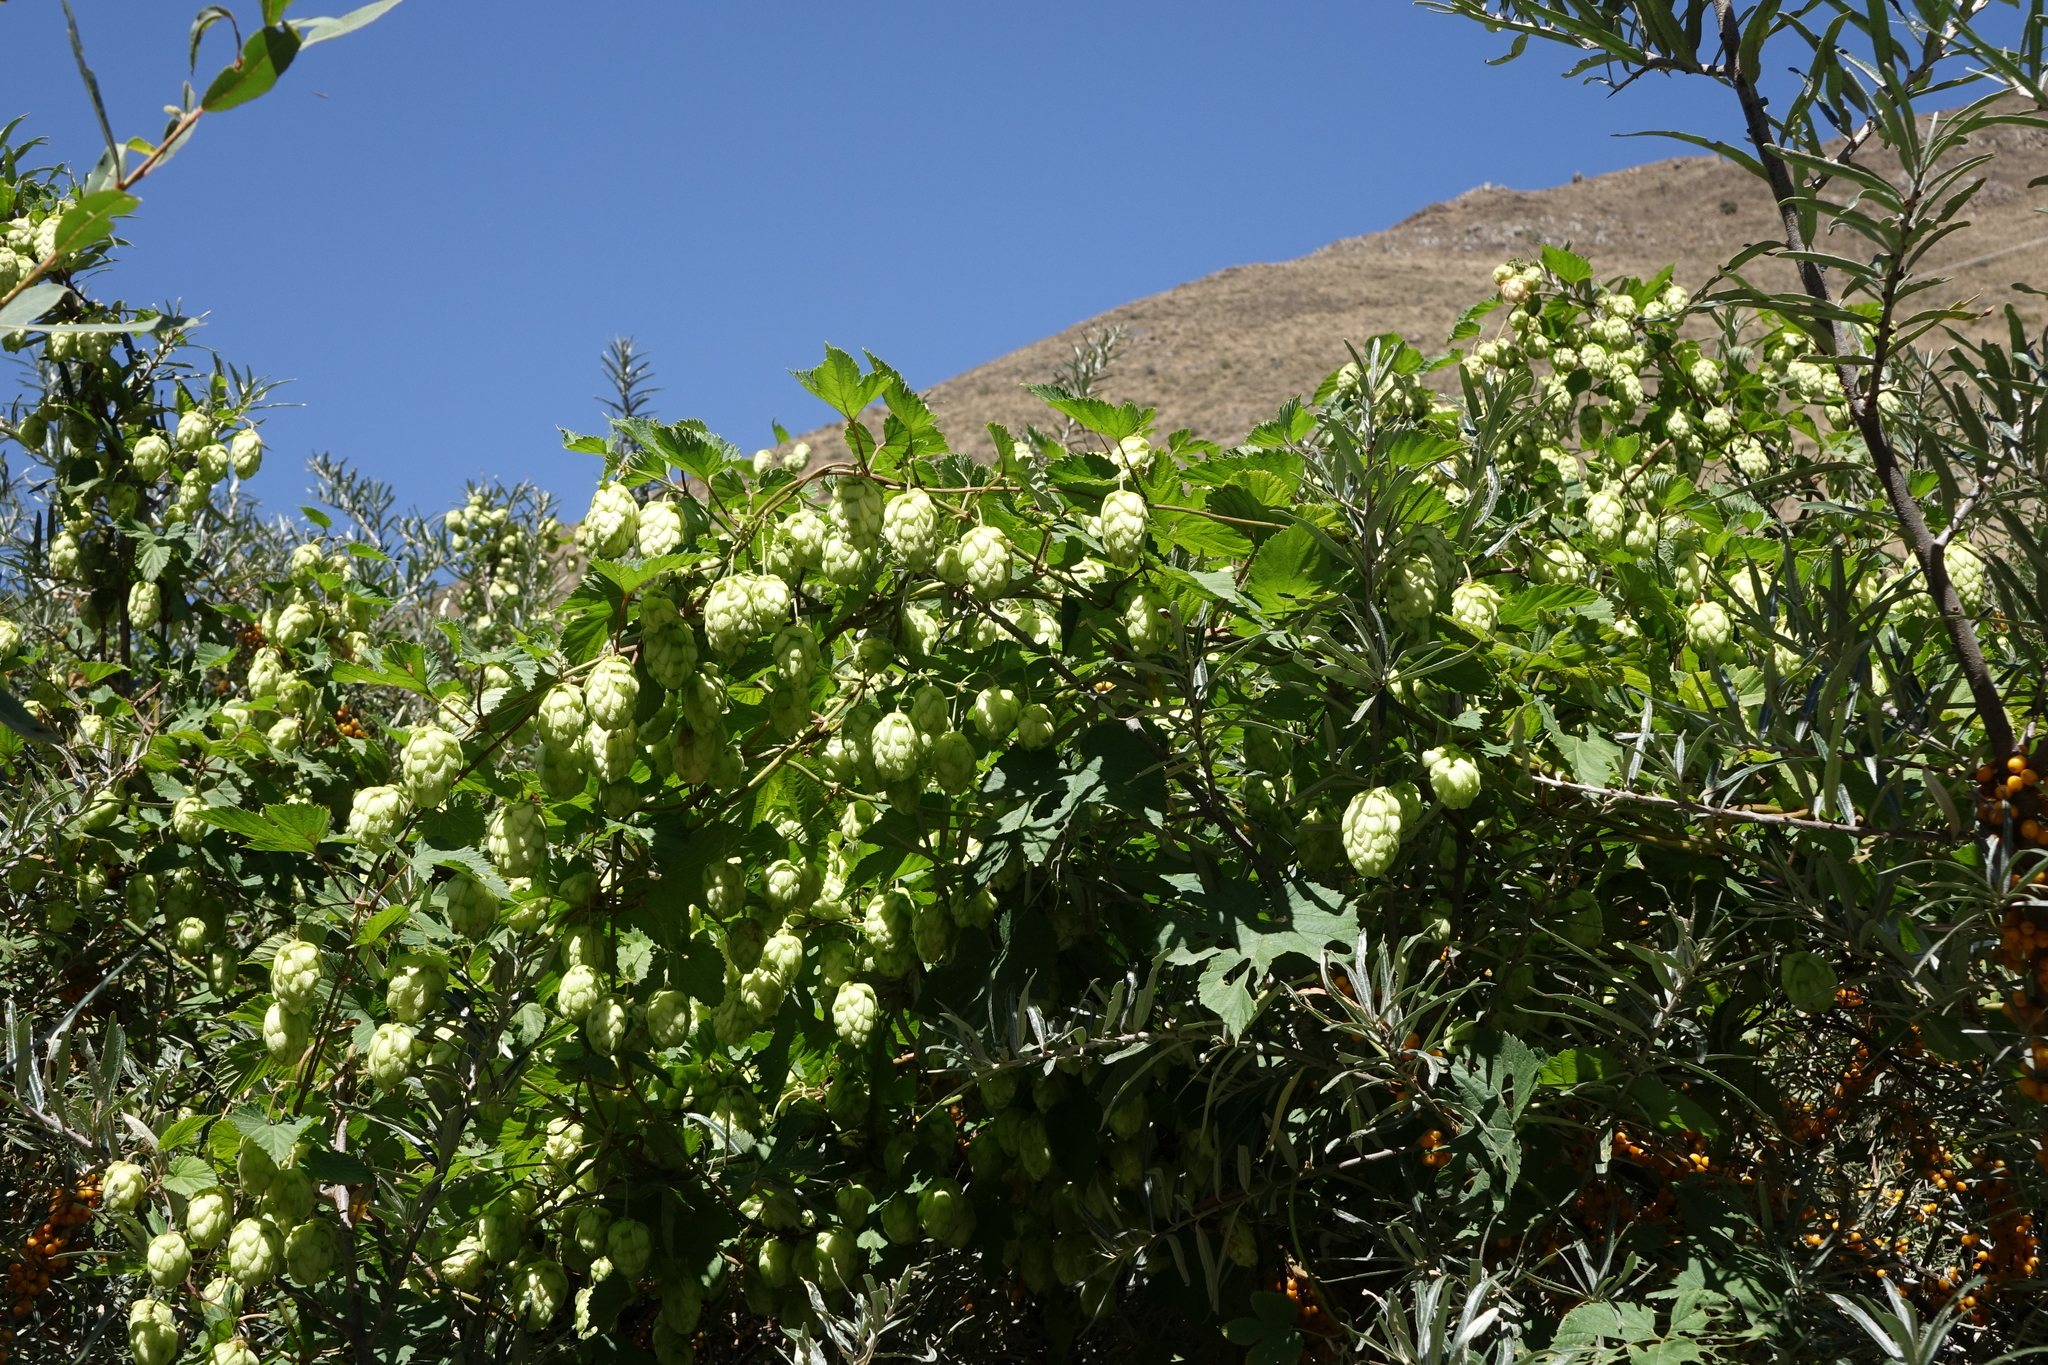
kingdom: Plantae
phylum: Tracheophyta
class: Magnoliopsida
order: Rosales
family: Cannabaceae
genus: Humulus
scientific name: Humulus lupulus
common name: Hop
